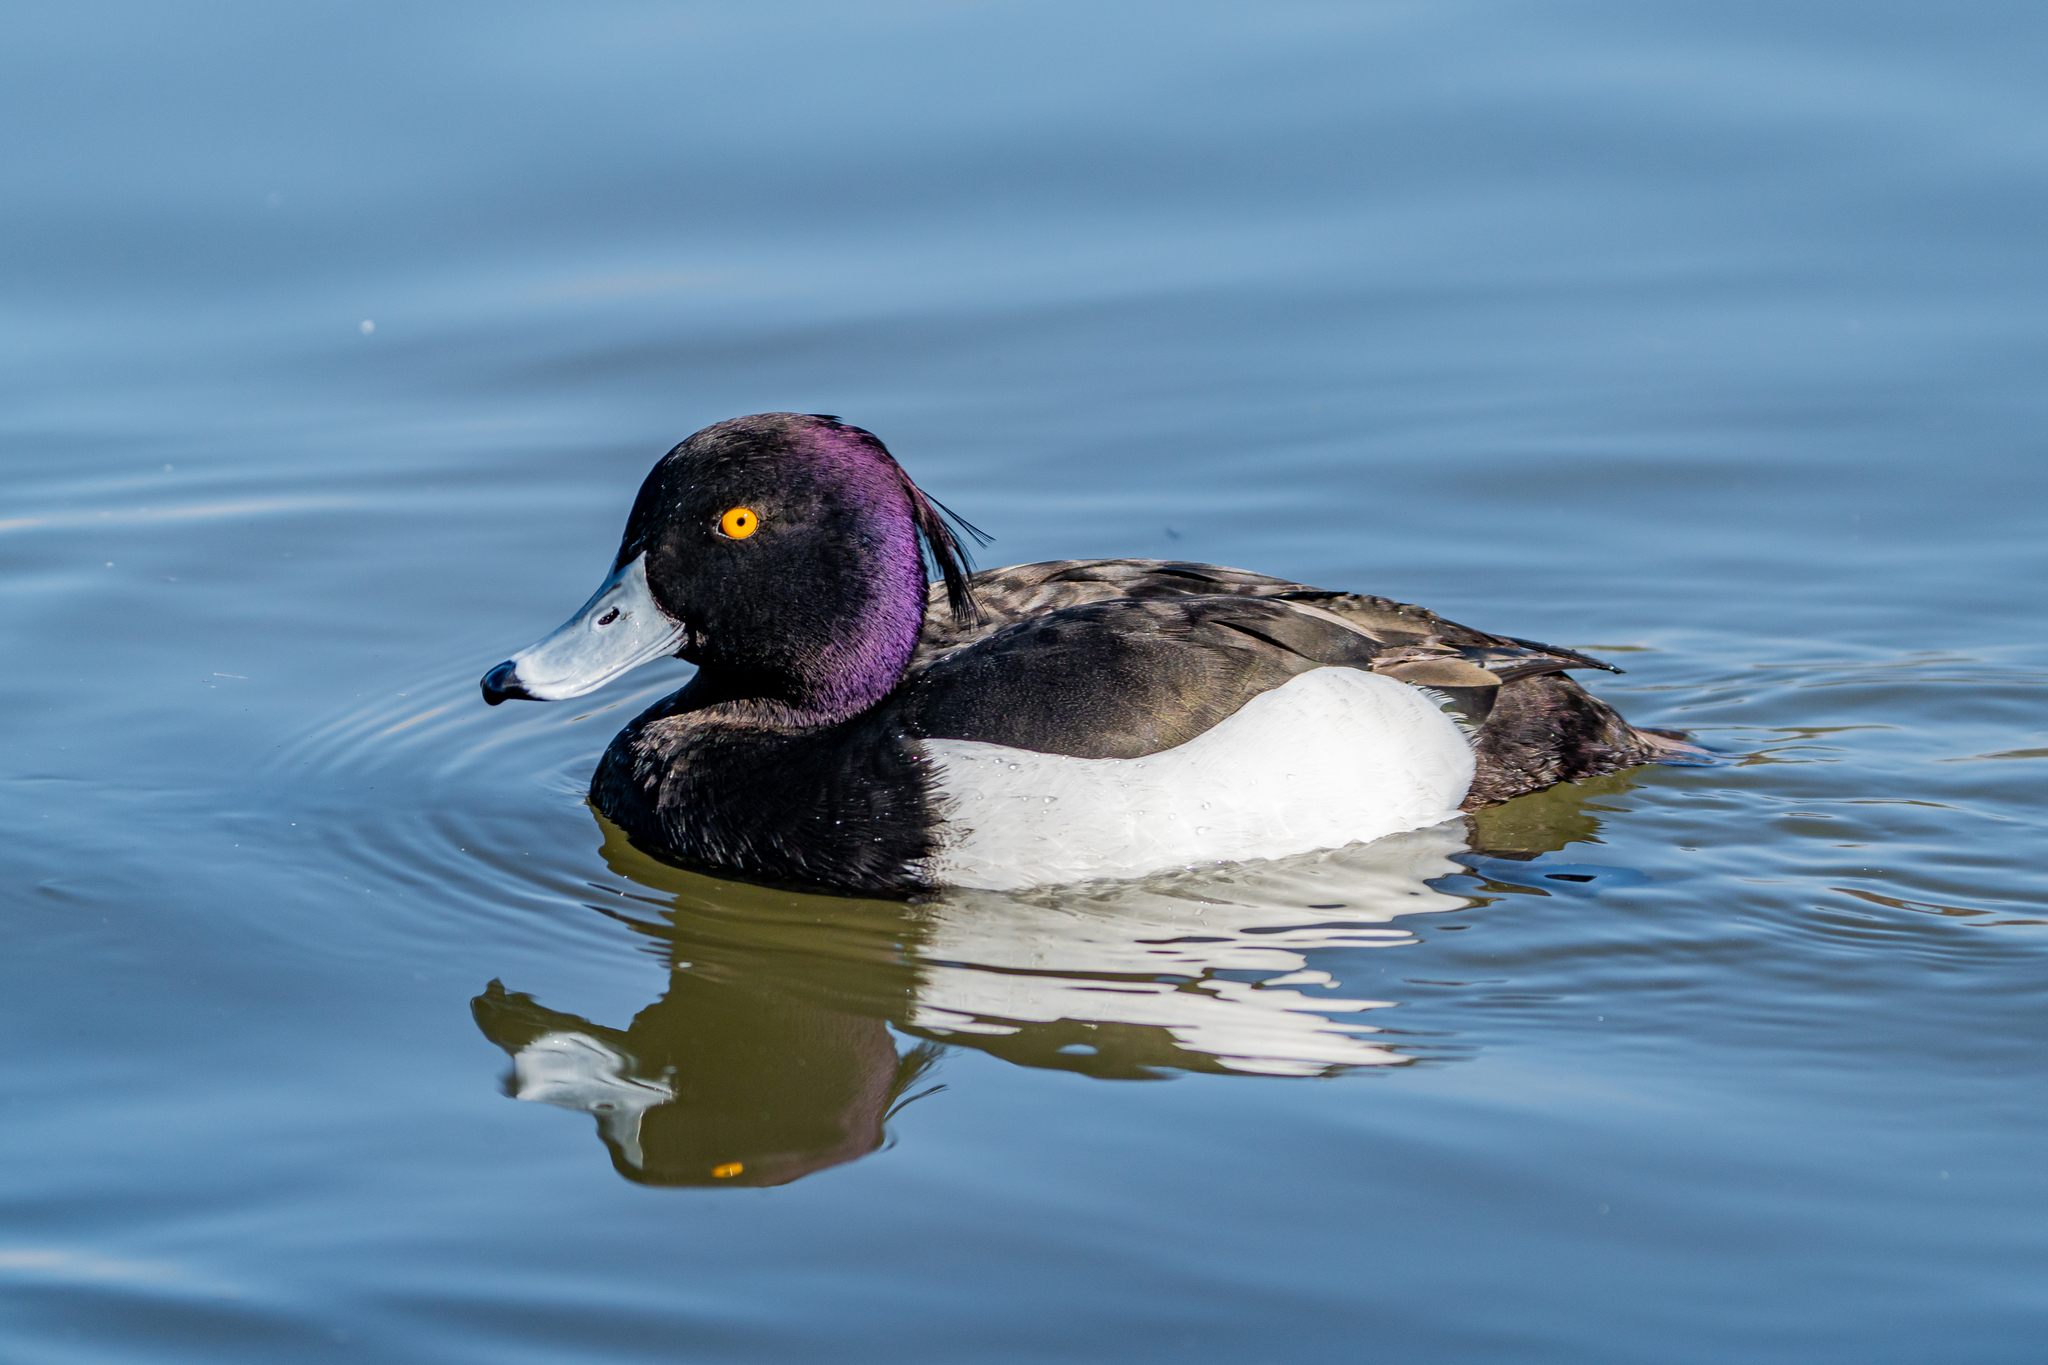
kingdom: Animalia
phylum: Chordata
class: Aves
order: Anseriformes
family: Anatidae
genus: Aythya
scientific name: Aythya fuligula
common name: Tufted duck
